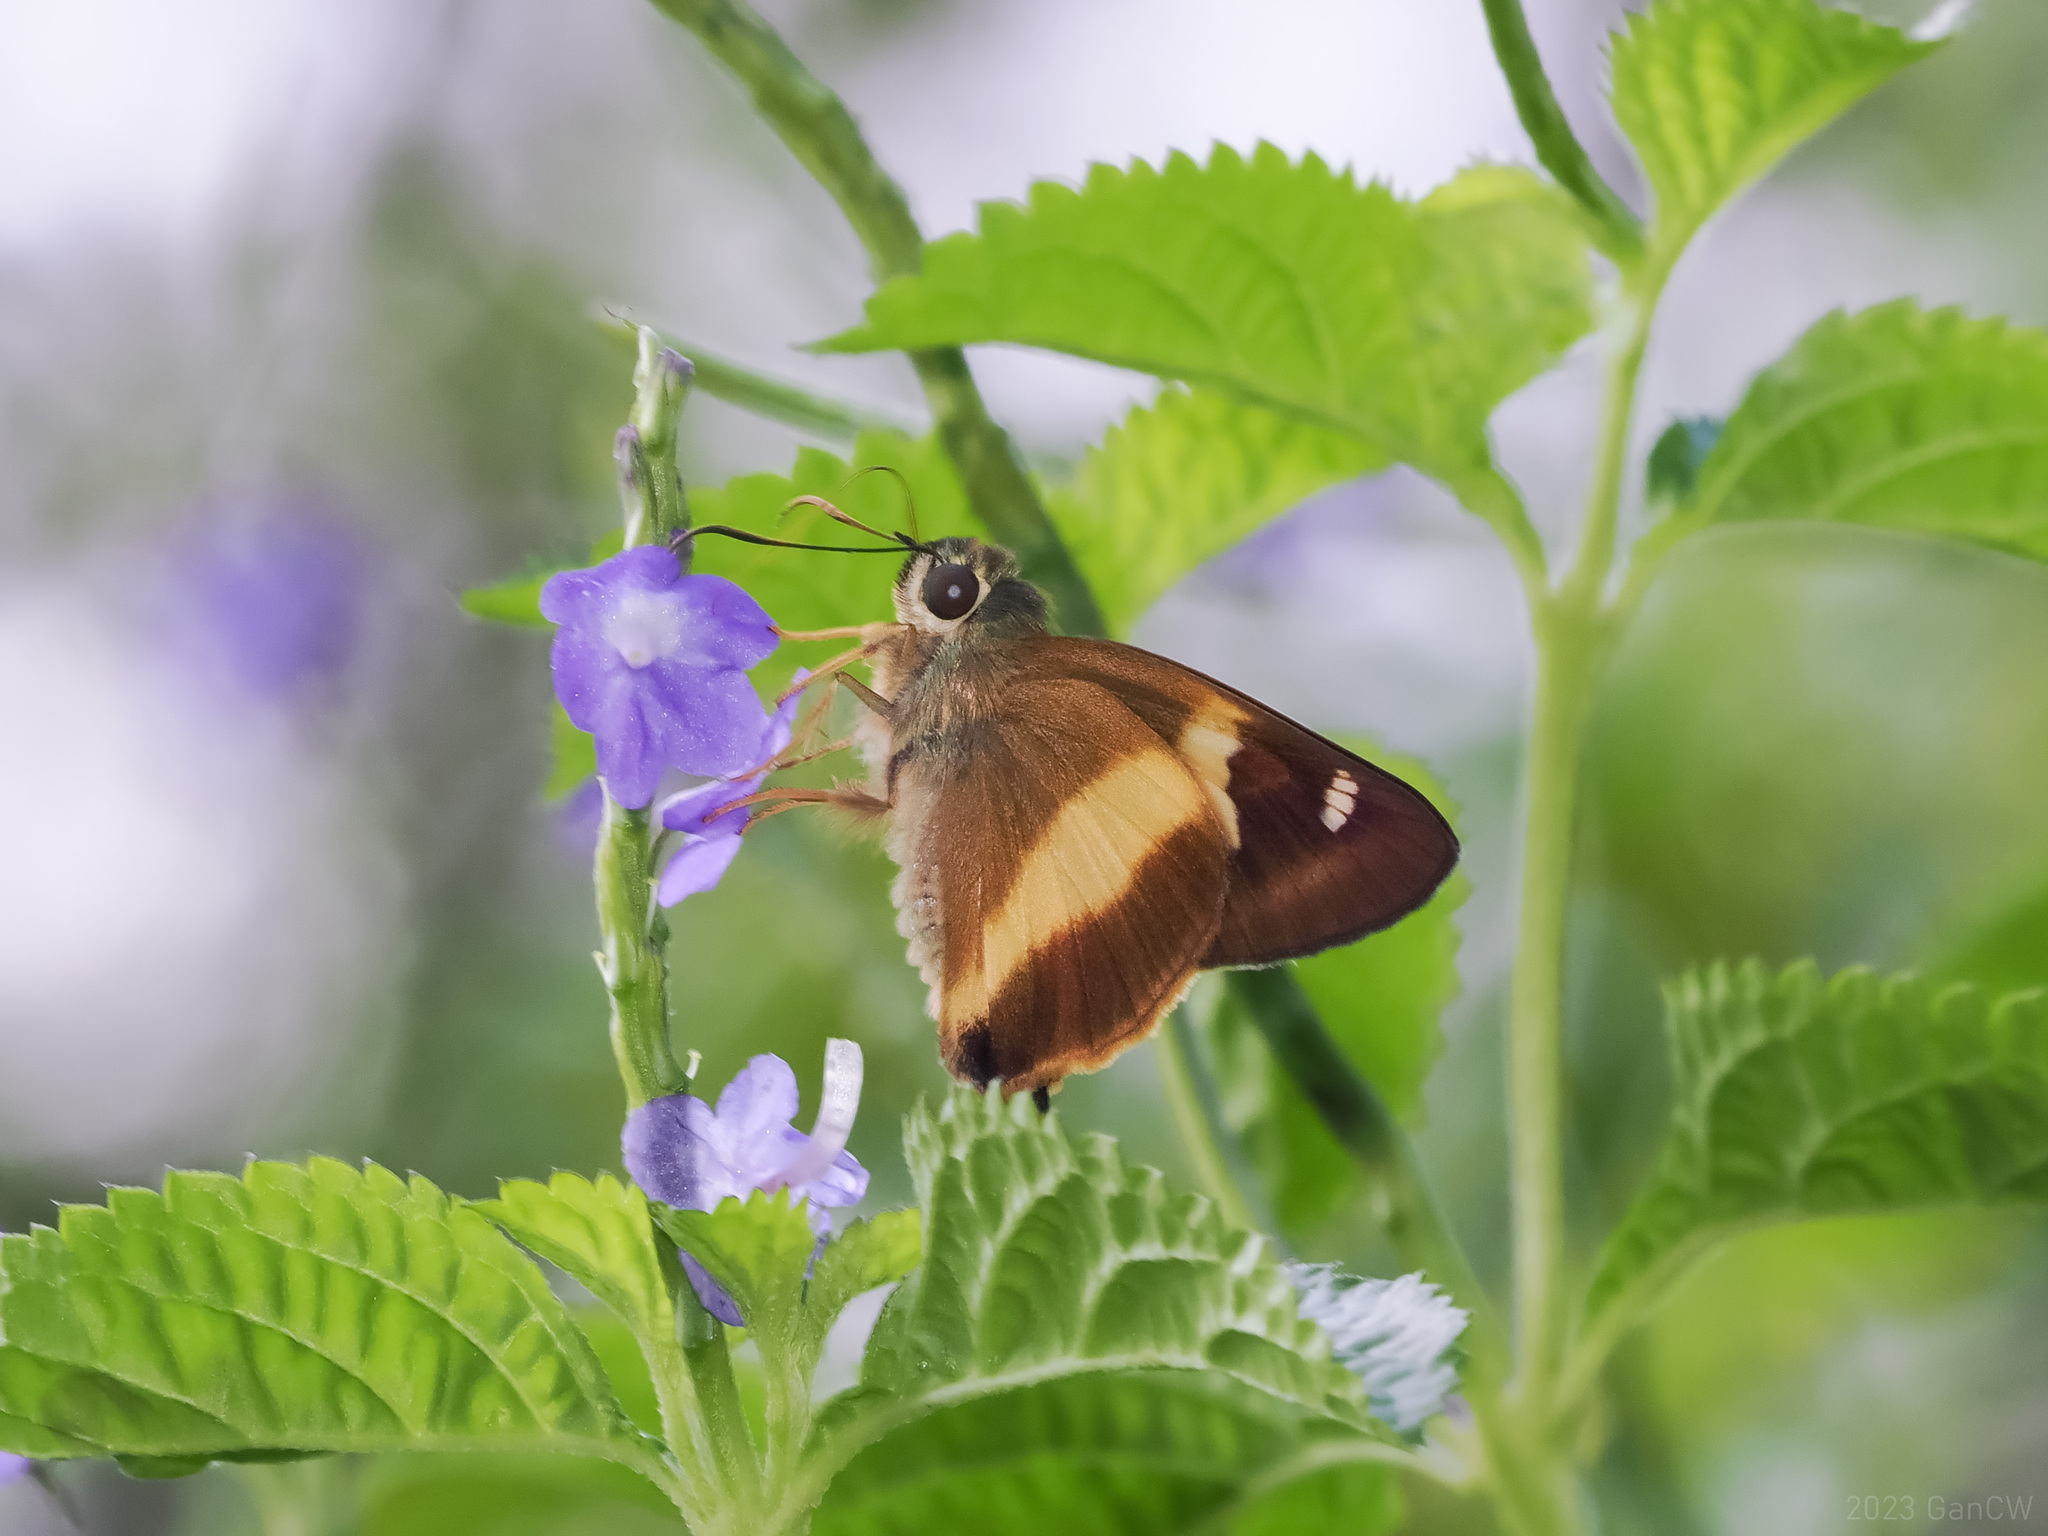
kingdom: Animalia
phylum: Arthropoda
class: Insecta
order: Lepidoptera
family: Hesperiidae
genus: Hasora
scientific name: Hasora schoenherr
